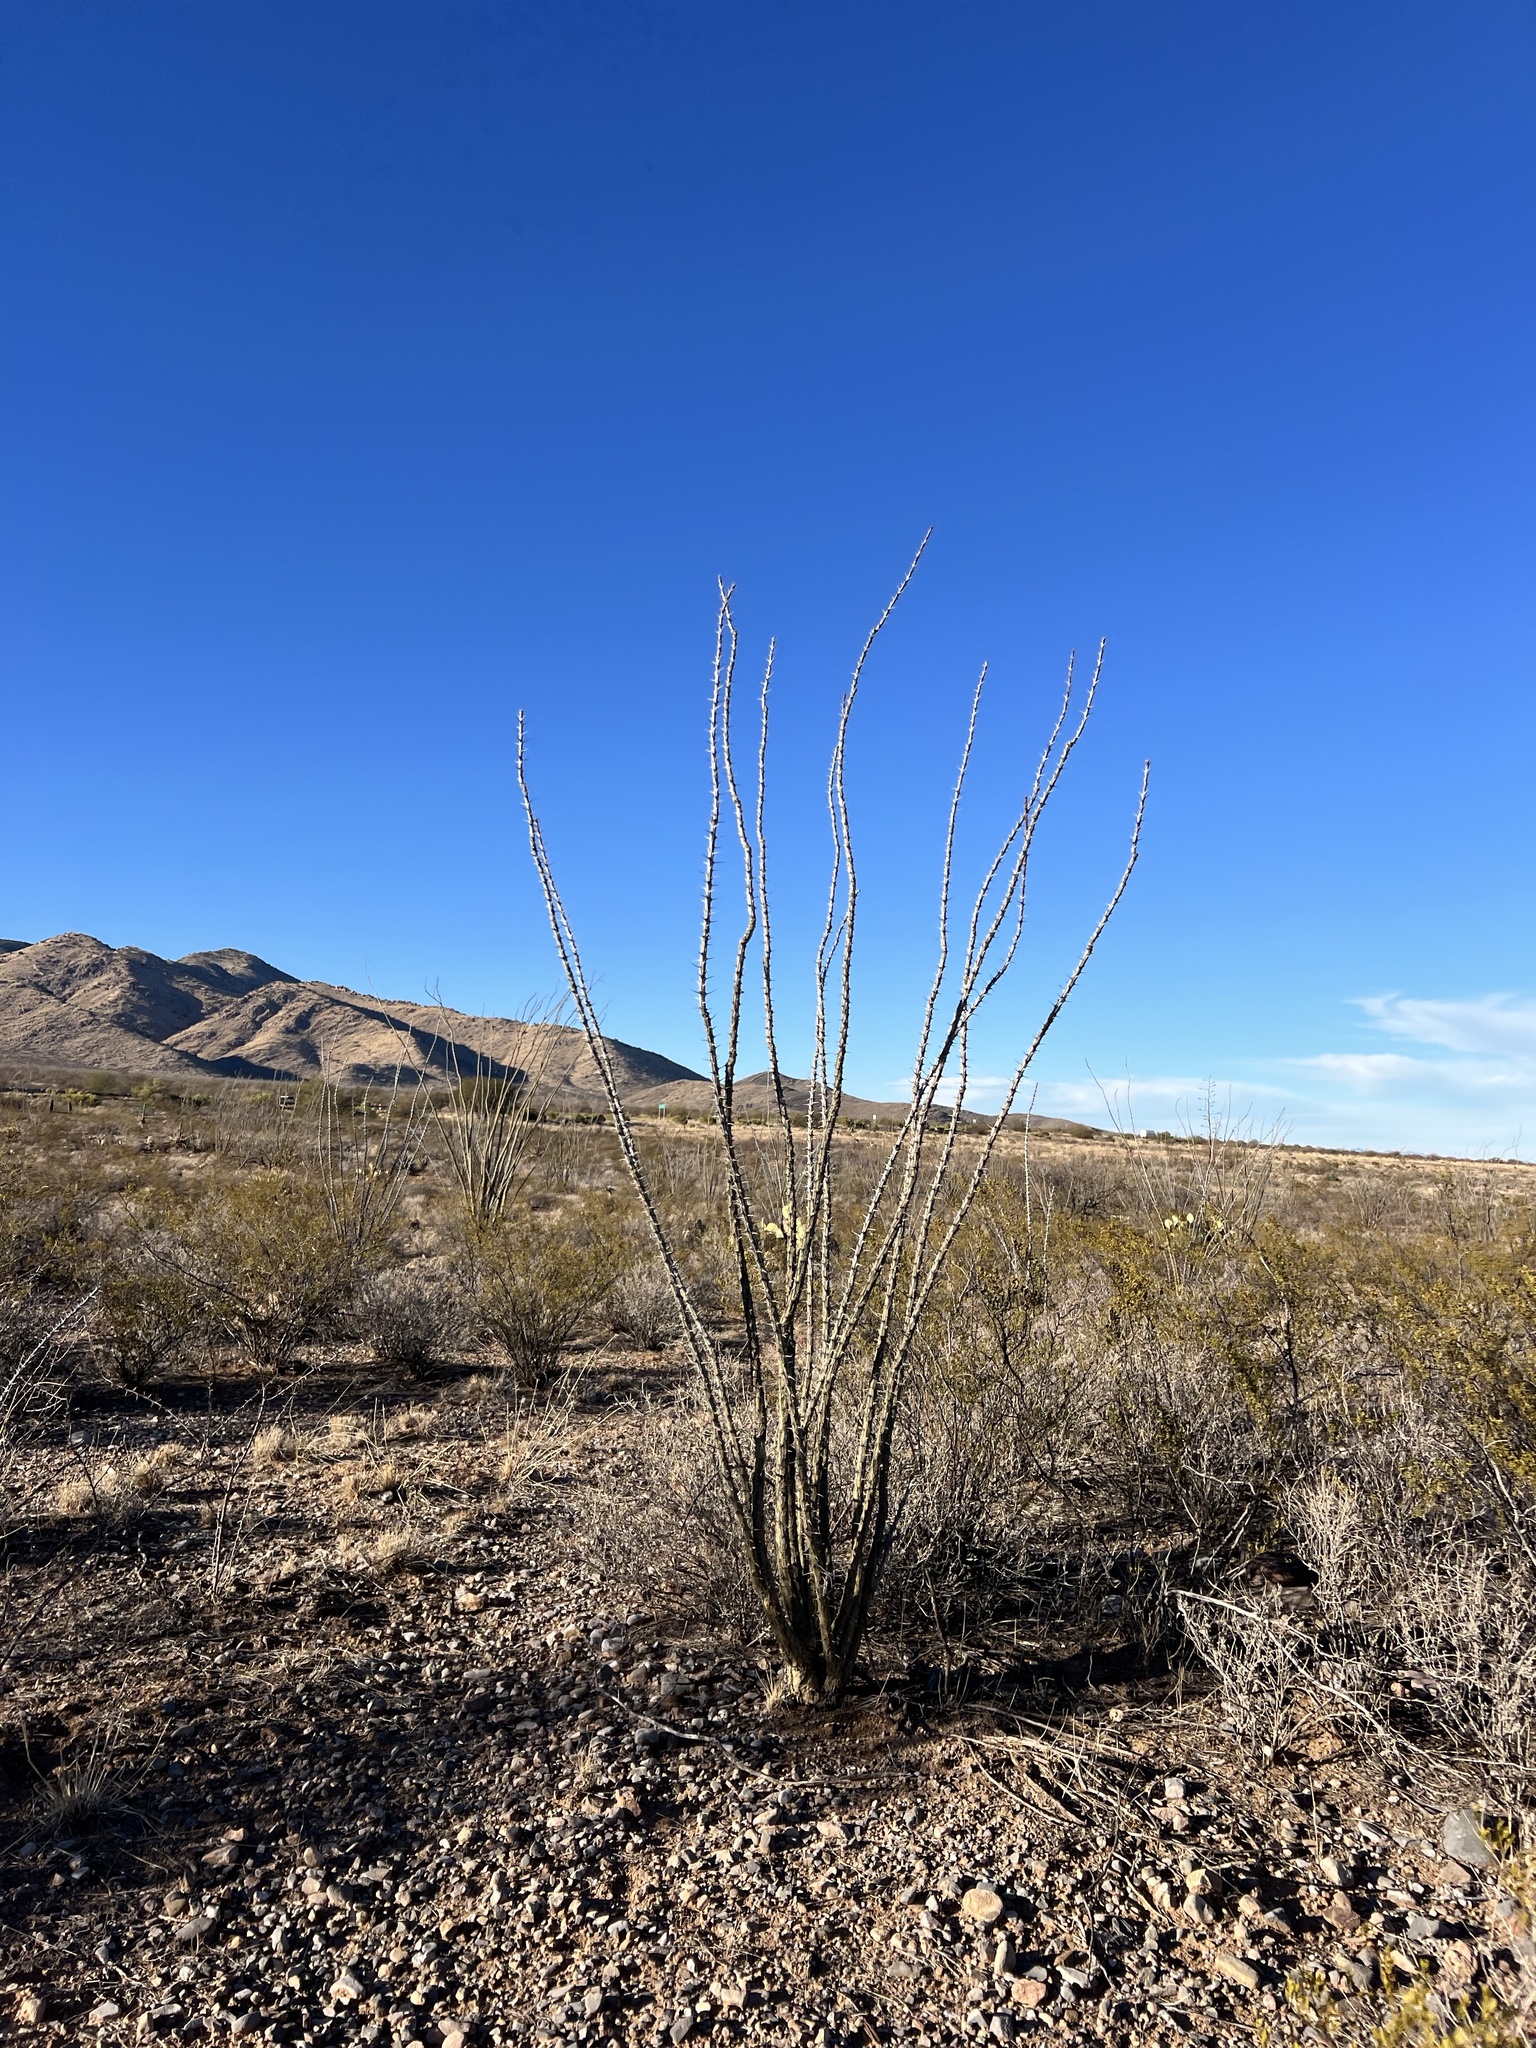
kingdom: Plantae
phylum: Tracheophyta
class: Magnoliopsida
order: Ericales
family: Fouquieriaceae
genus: Fouquieria
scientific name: Fouquieria splendens
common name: Vine-cactus
